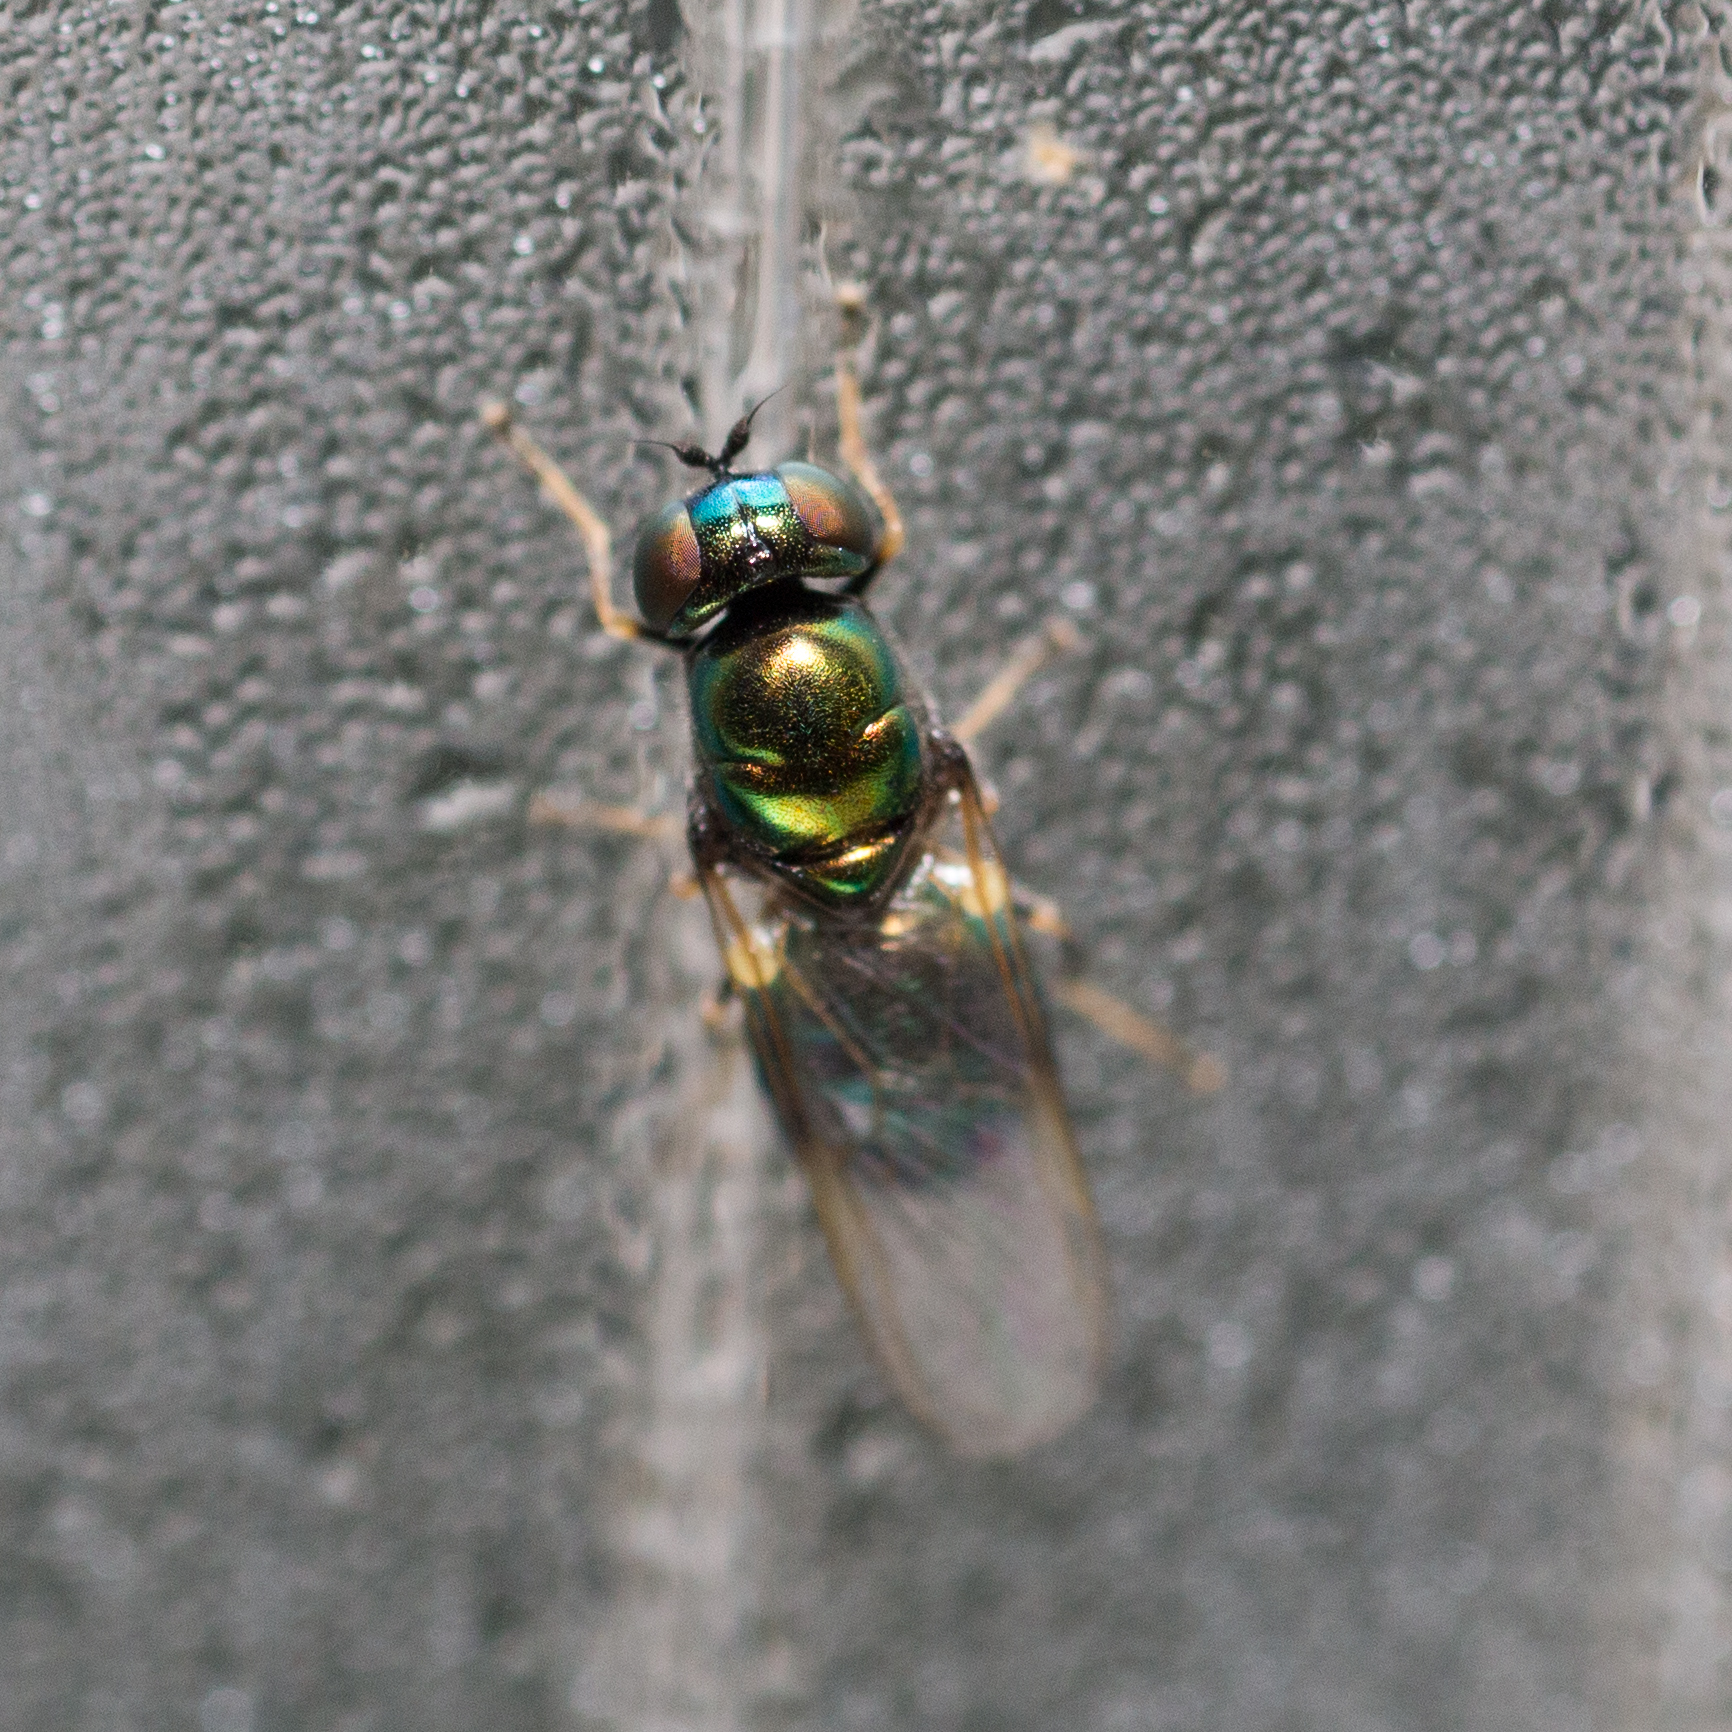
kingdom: Animalia
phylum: Arthropoda
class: Insecta
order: Diptera
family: Stratiomyidae
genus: Microchrysa
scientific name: Microchrysa polita
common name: Black-horned gem
